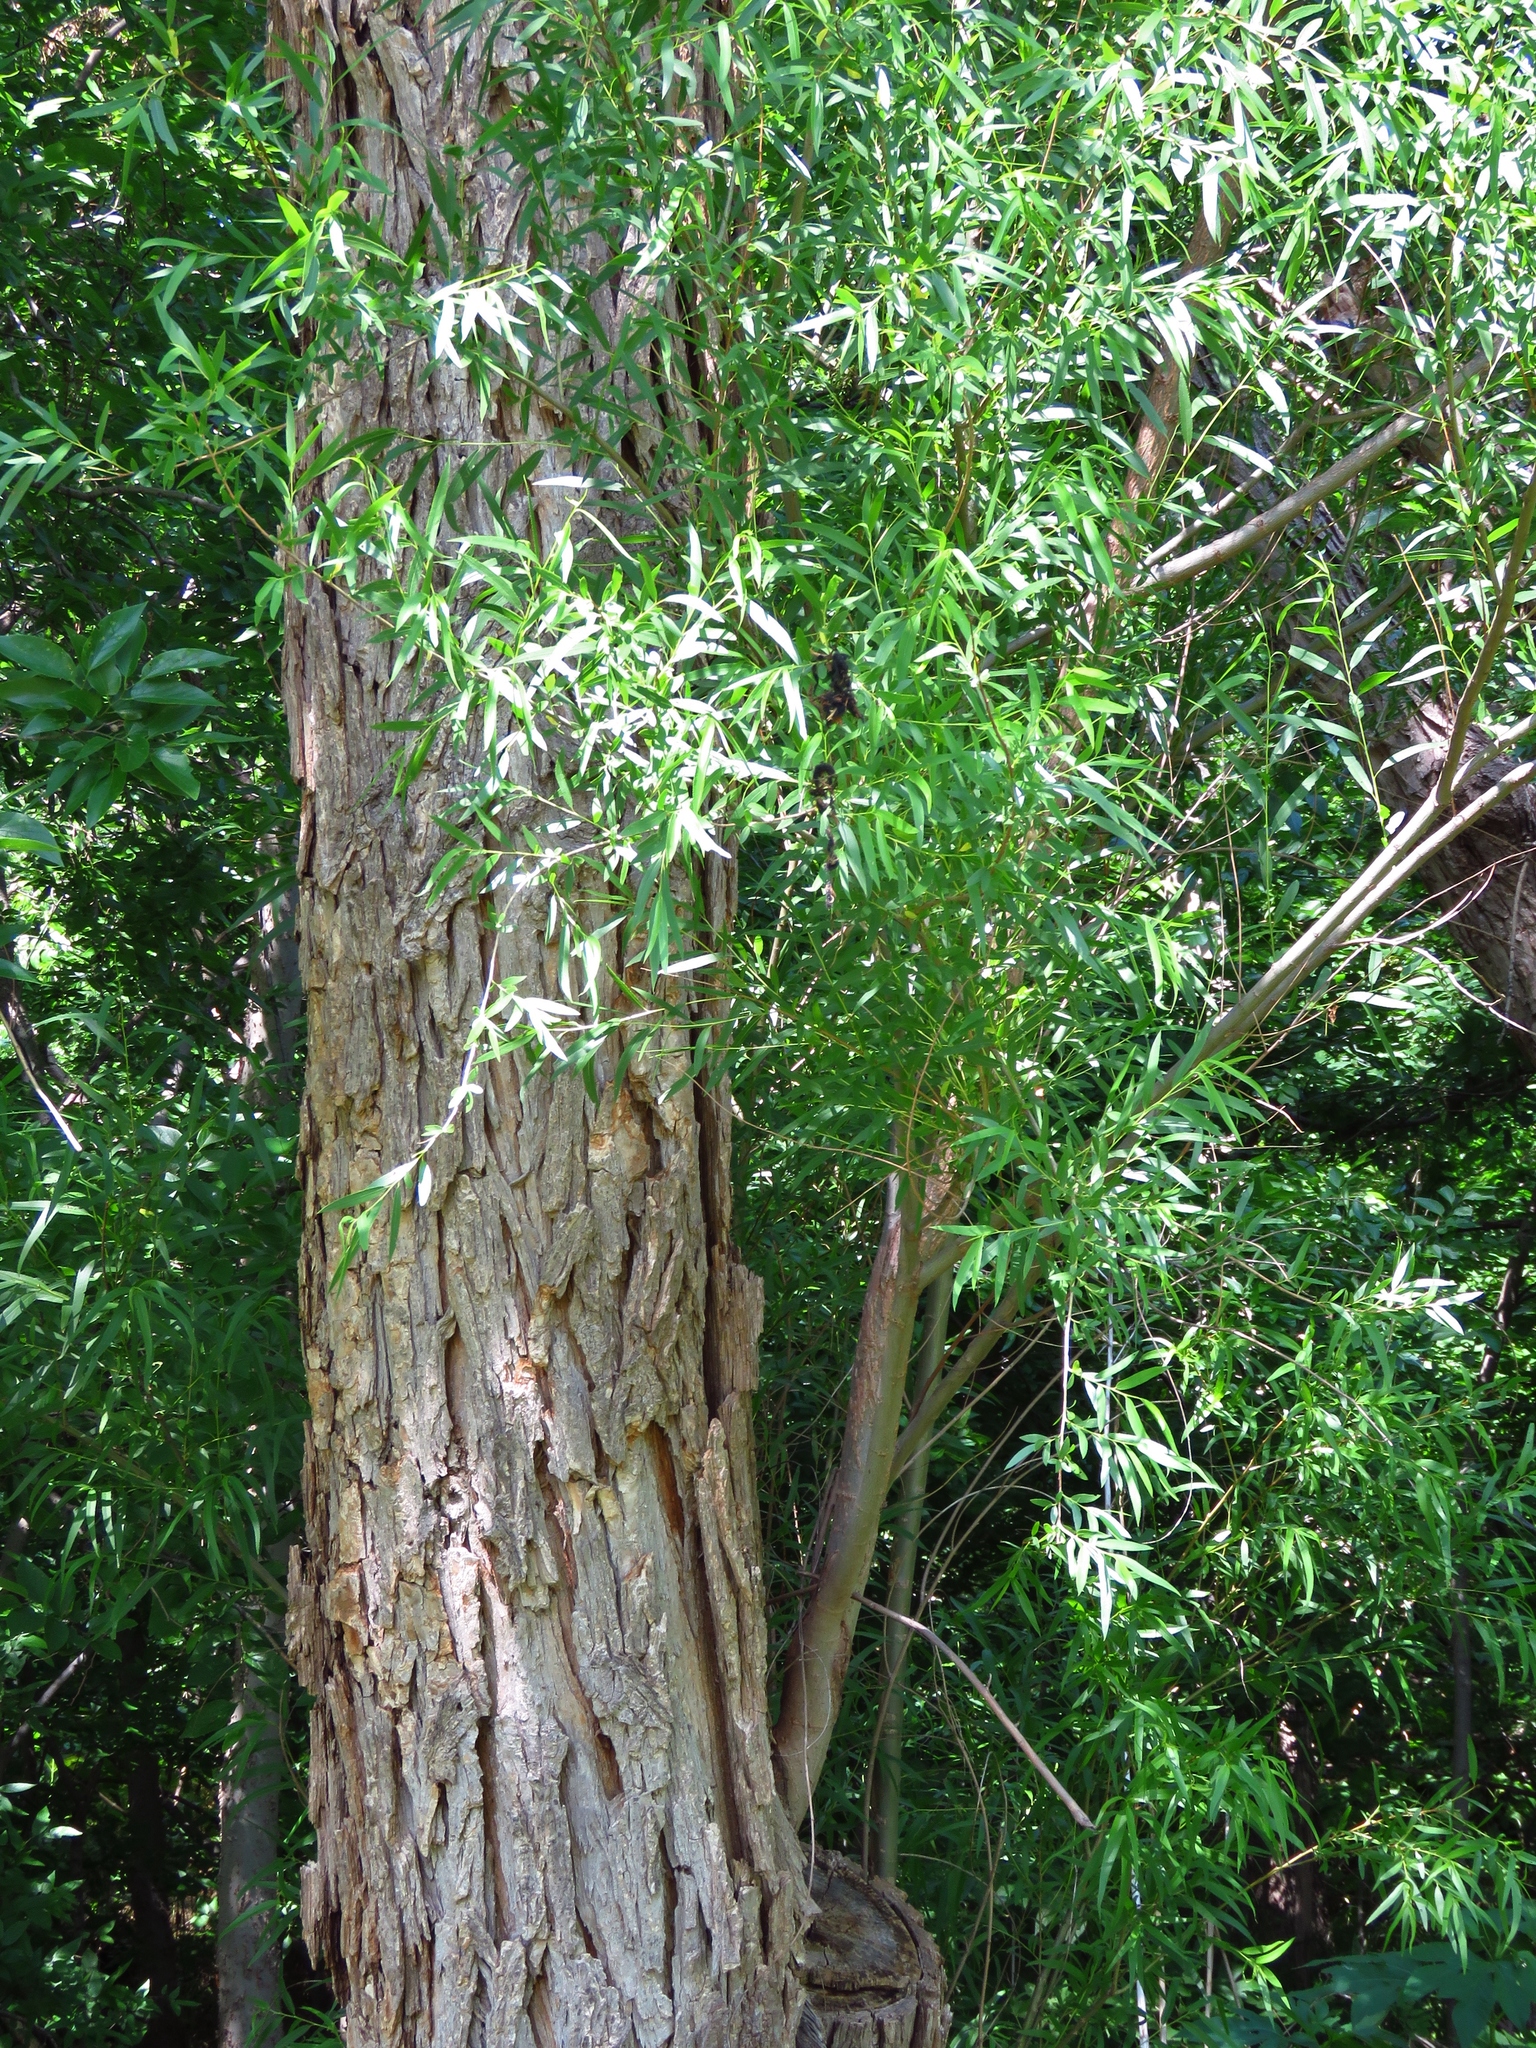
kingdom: Plantae
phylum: Tracheophyta
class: Magnoliopsida
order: Malpighiales
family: Salicaceae
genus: Salix
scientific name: Salix nigra
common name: Black willow
